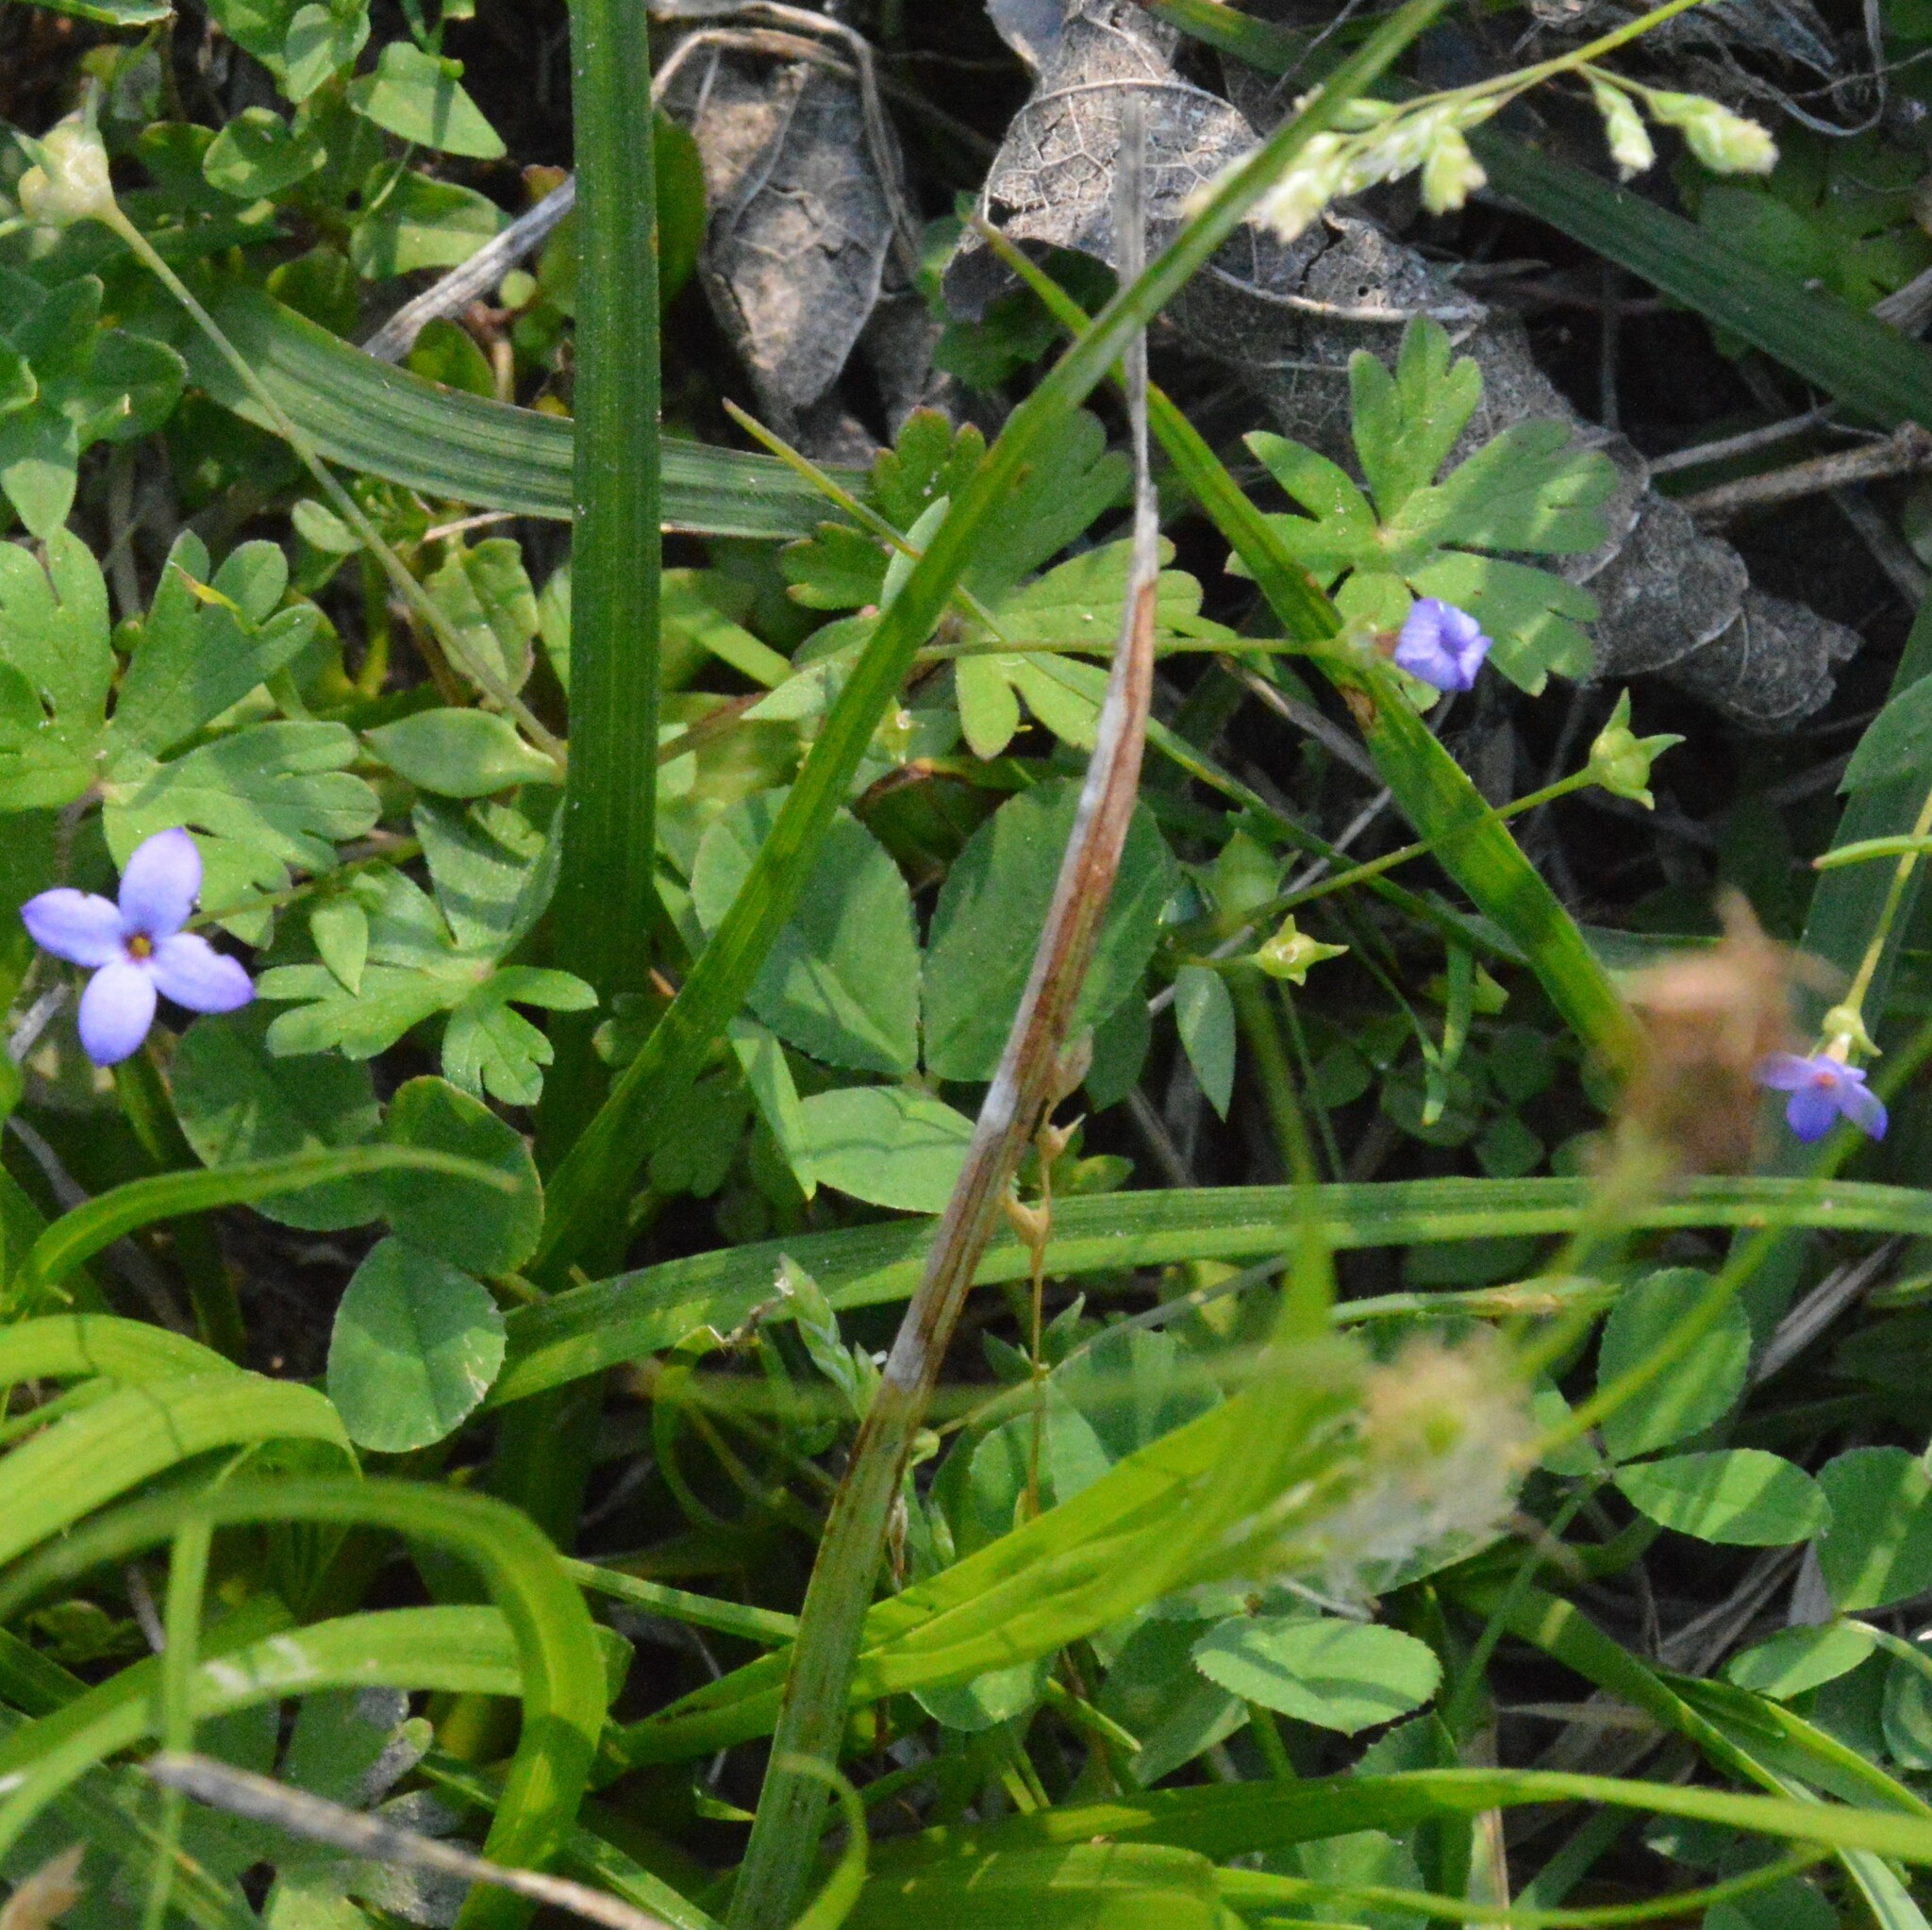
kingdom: Plantae
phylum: Tracheophyta
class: Magnoliopsida
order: Gentianales
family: Rubiaceae
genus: Houstonia
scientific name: Houstonia pusilla
